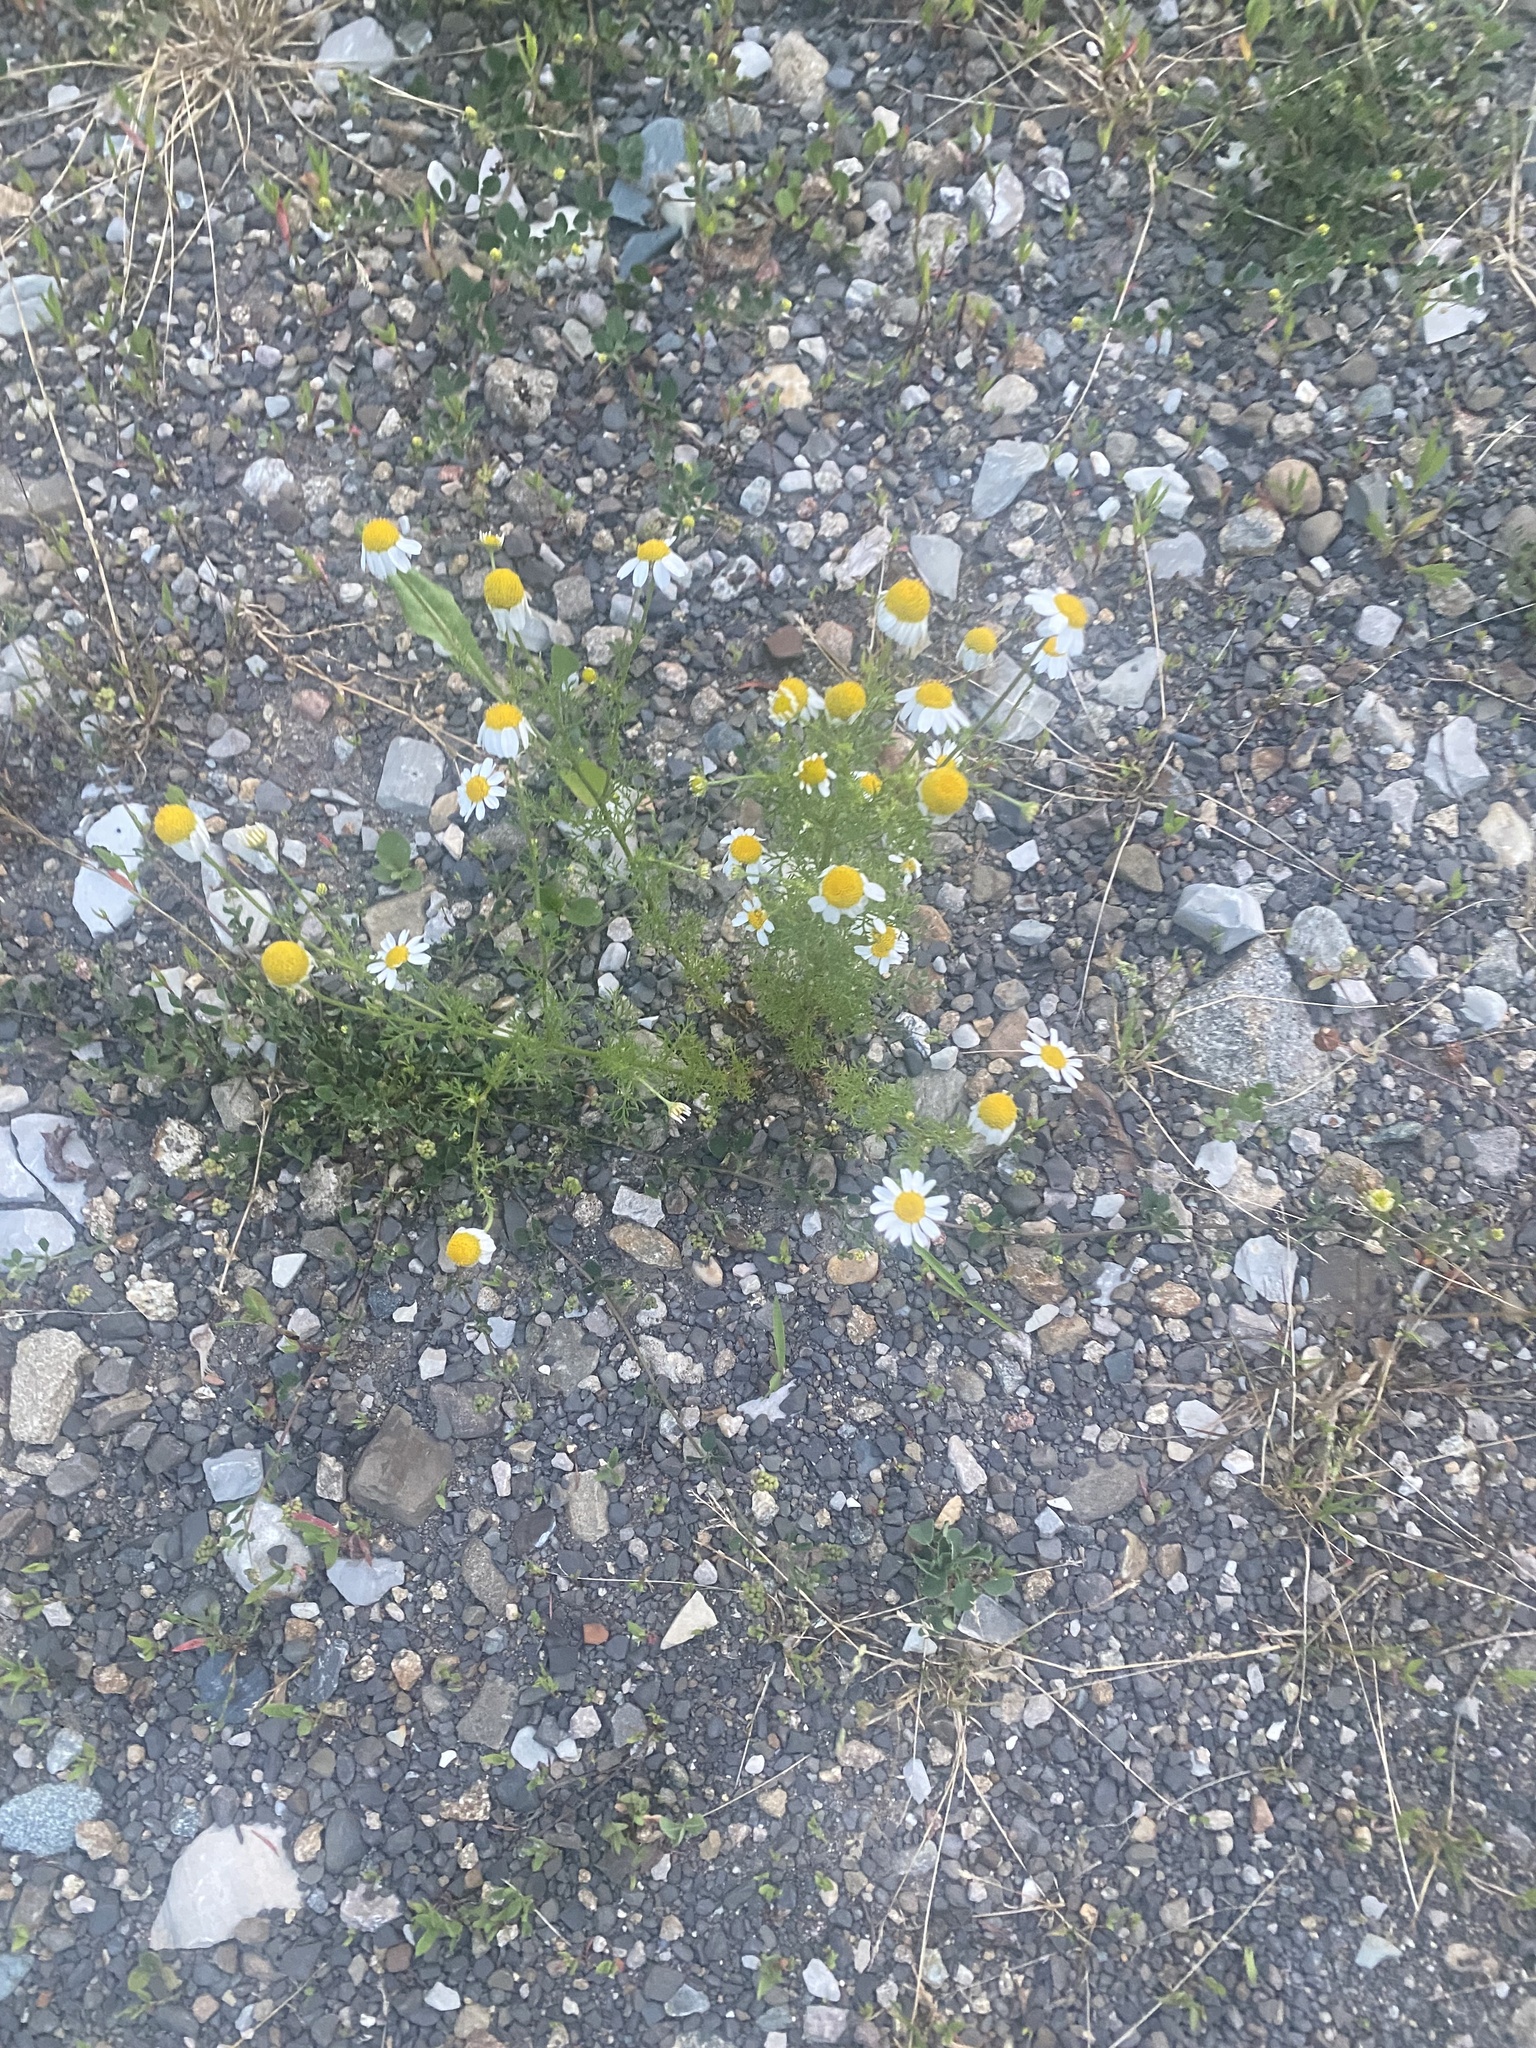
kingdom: Plantae
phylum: Tracheophyta
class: Magnoliopsida
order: Asterales
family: Asteraceae
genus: Tripleurospermum
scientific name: Tripleurospermum inodorum
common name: Scentless mayweed
